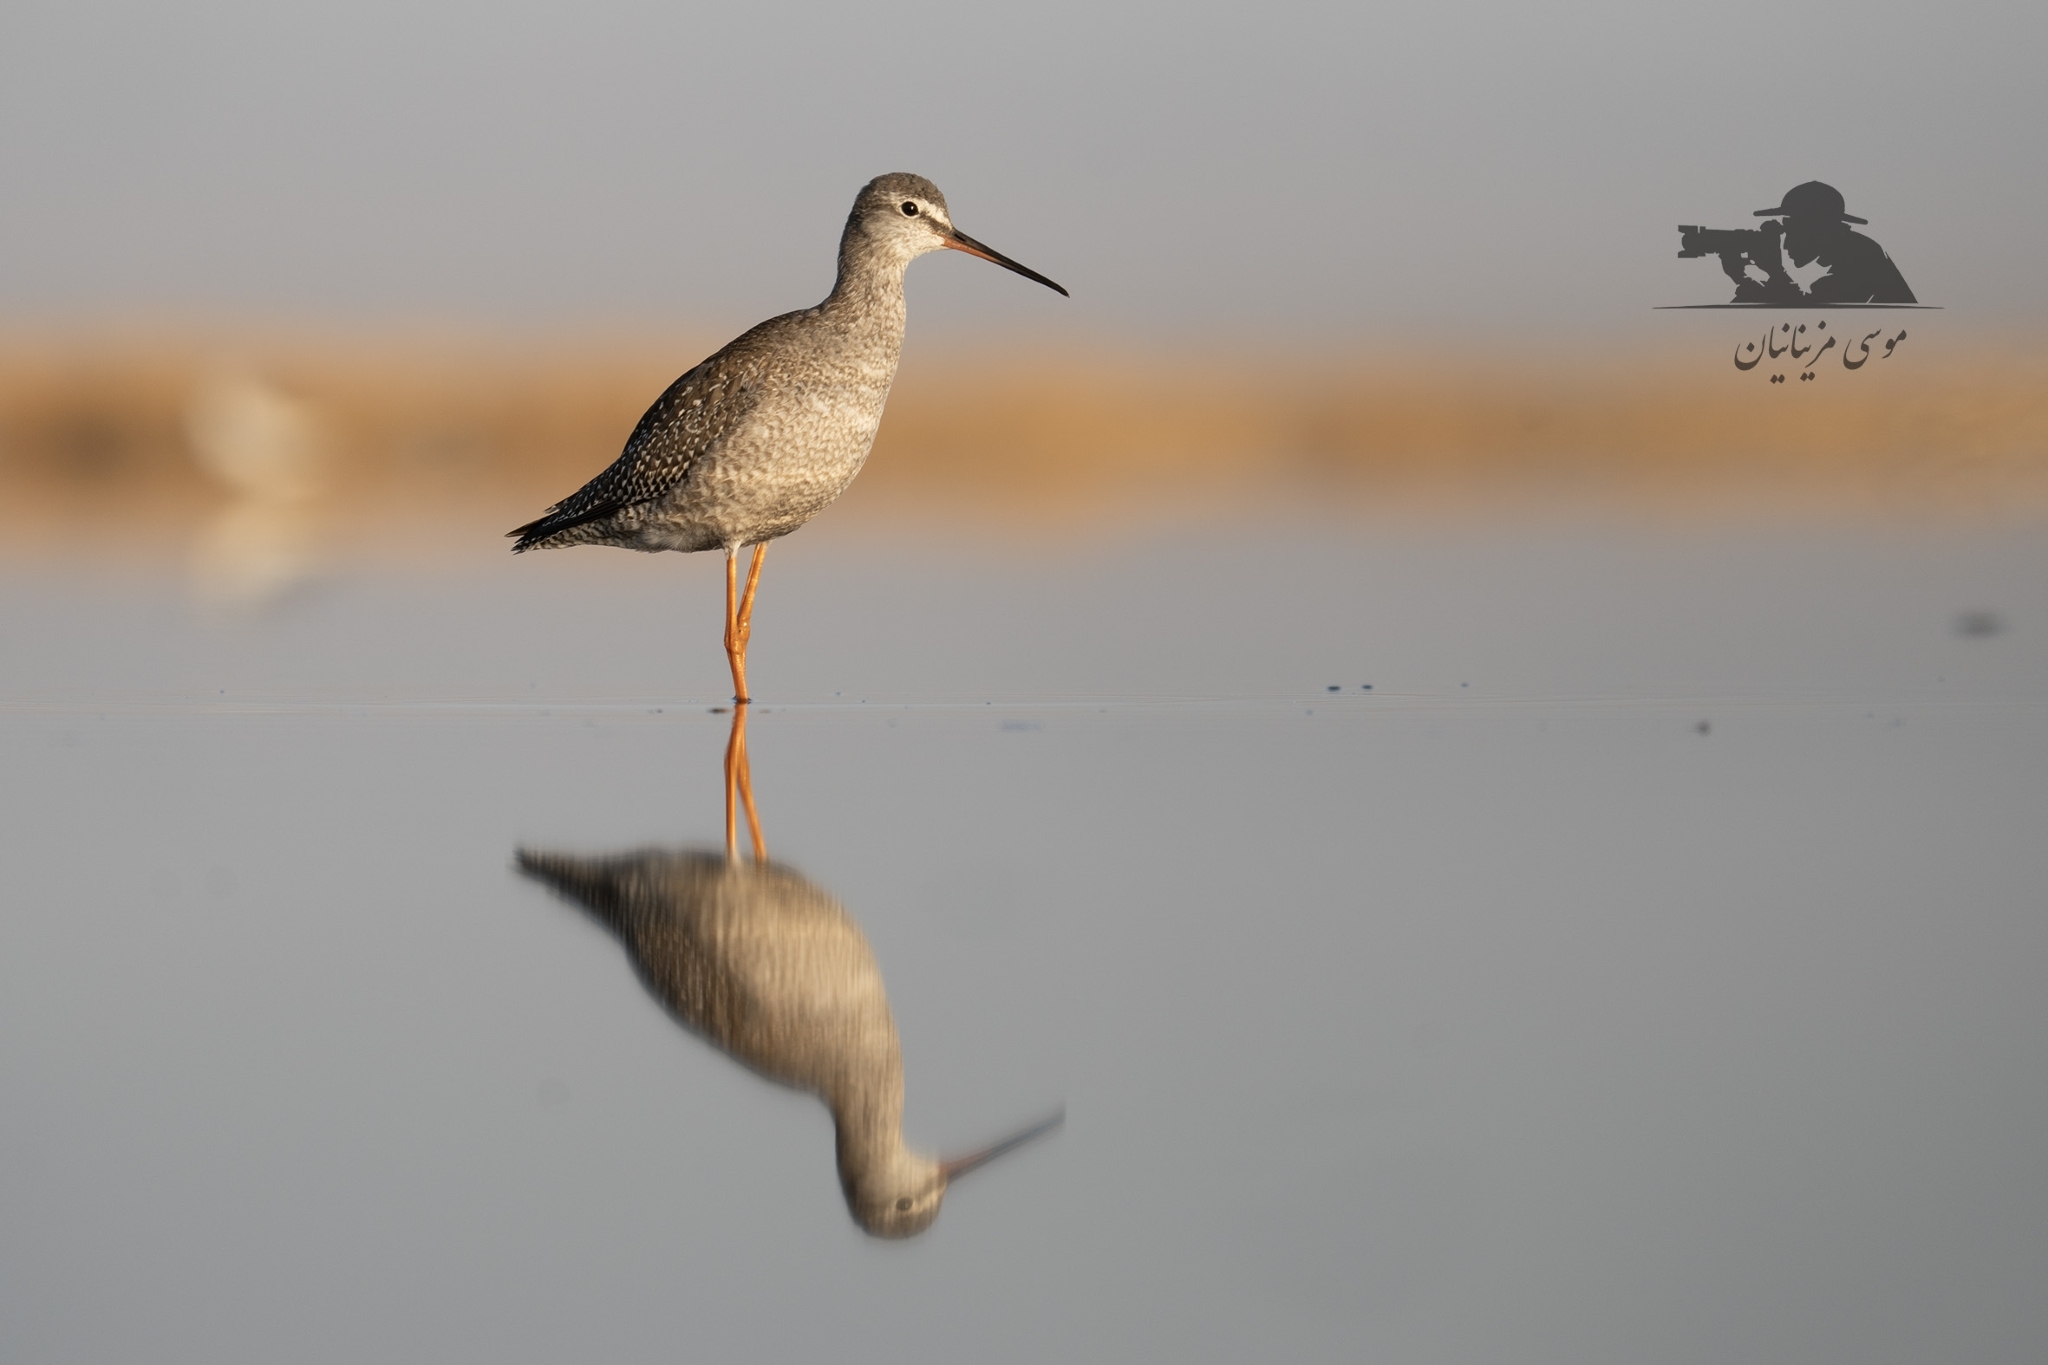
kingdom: Animalia
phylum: Chordata
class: Aves
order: Charadriiformes
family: Scolopacidae
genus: Tringa
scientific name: Tringa erythropus
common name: Spotted redshank
